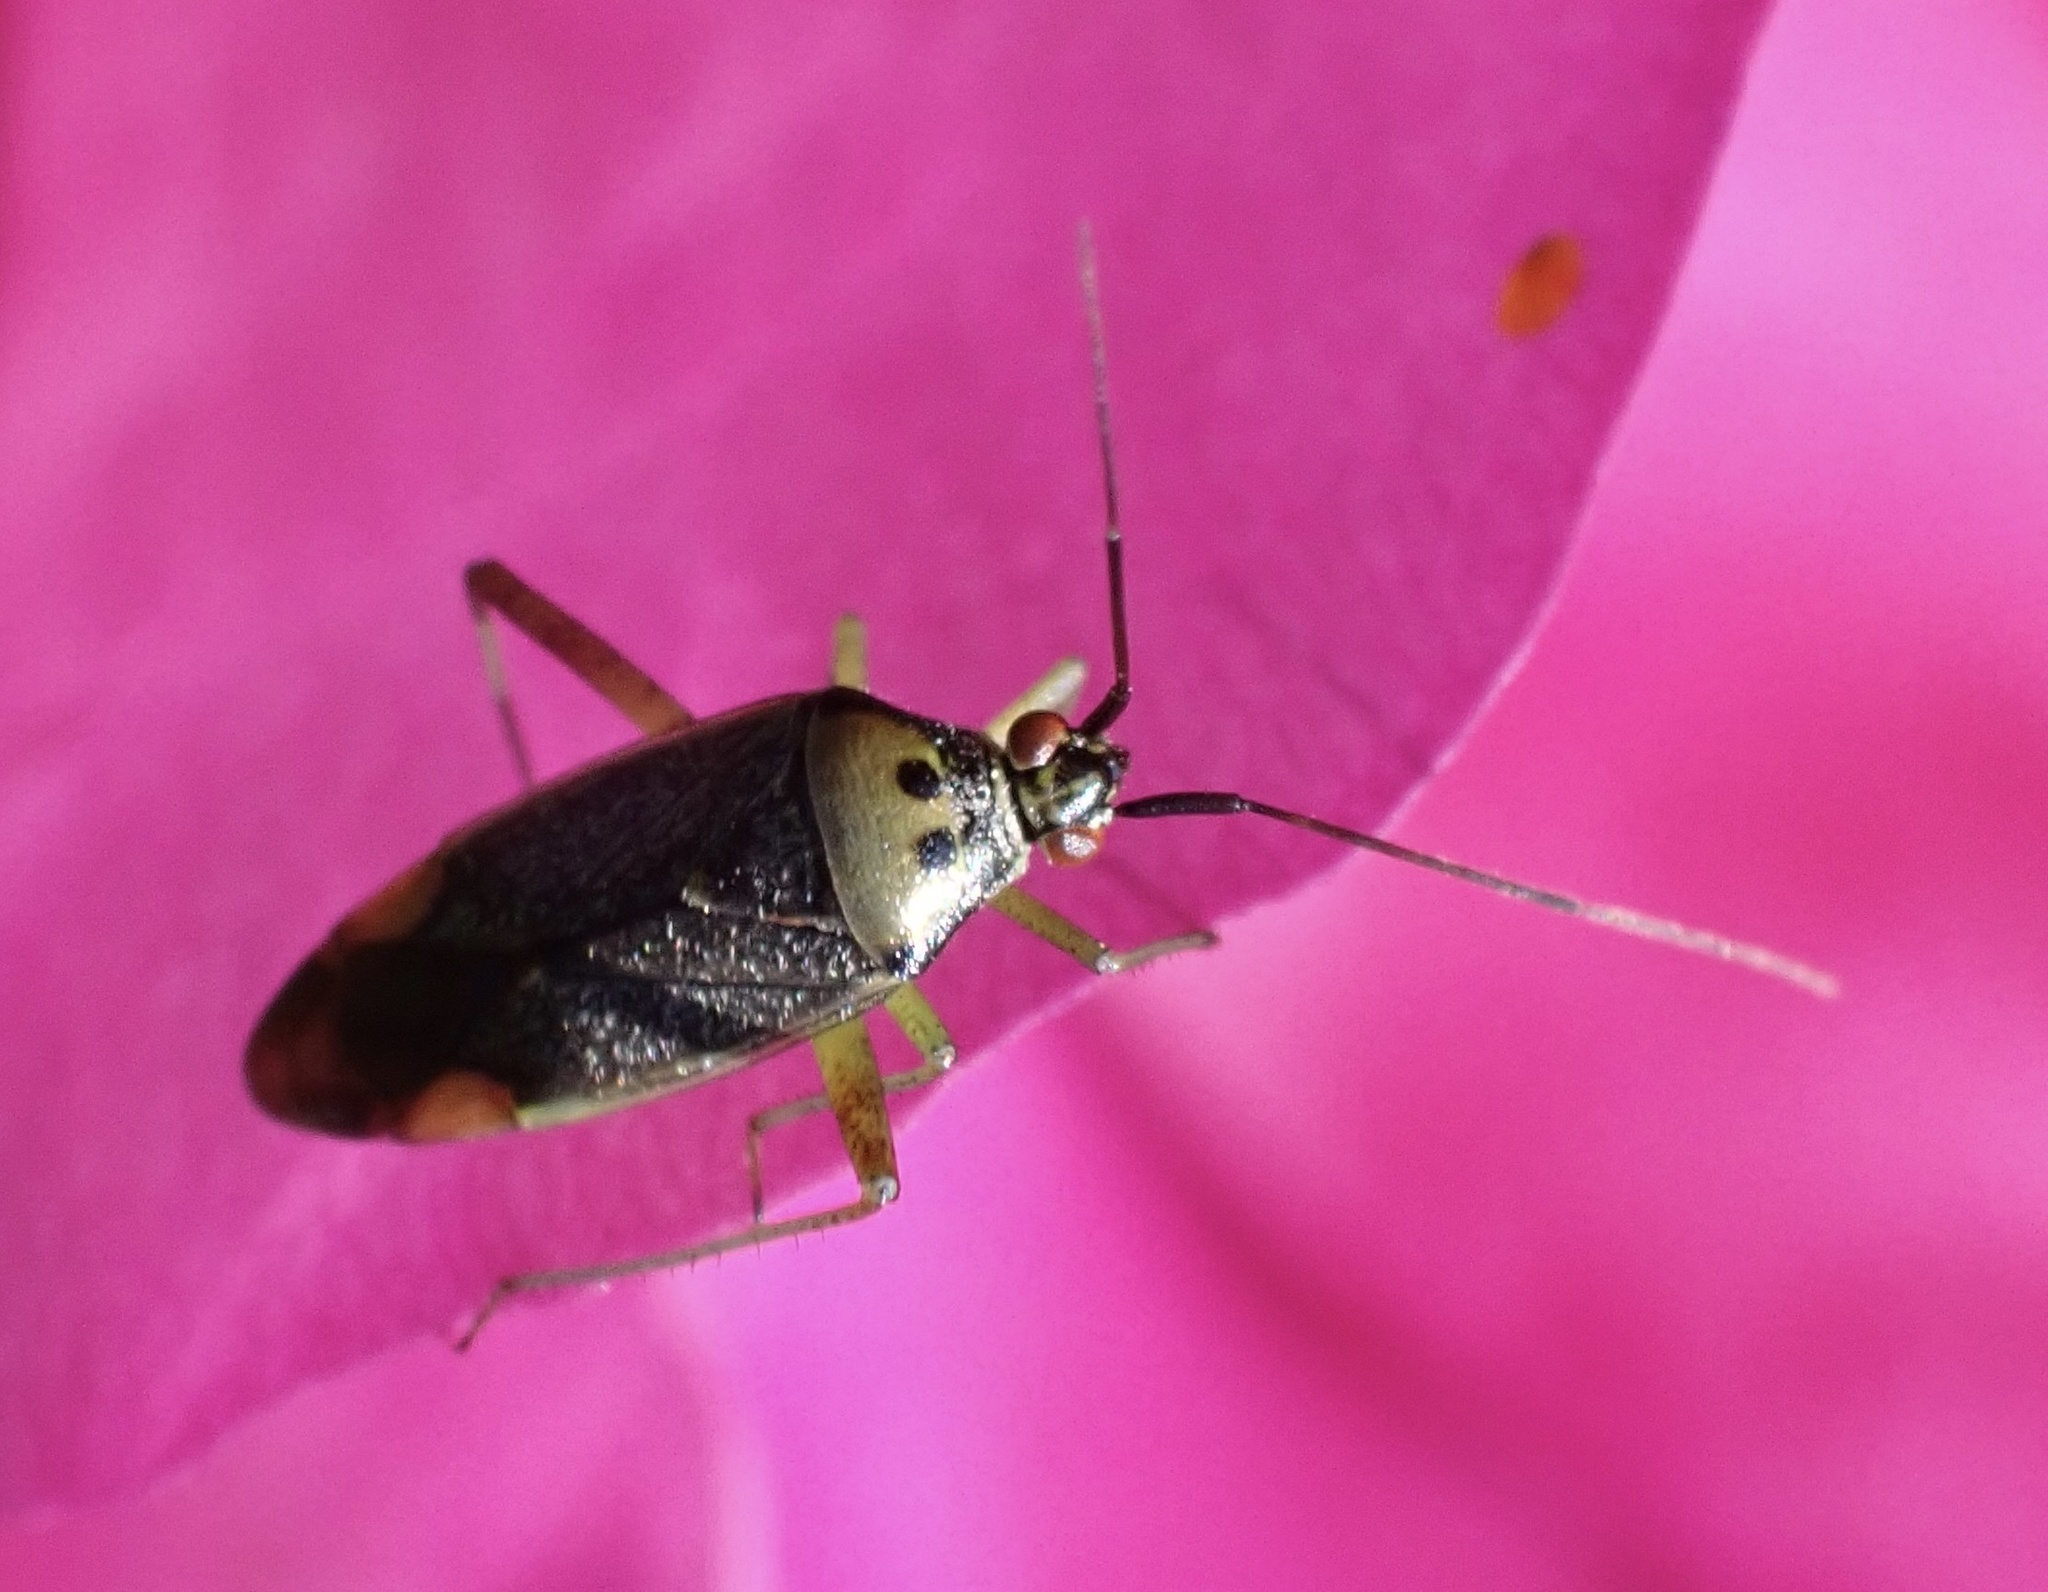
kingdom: Animalia
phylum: Arthropoda
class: Insecta
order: Hemiptera
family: Miridae
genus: Closterotomus
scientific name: Closterotomus trivialis
